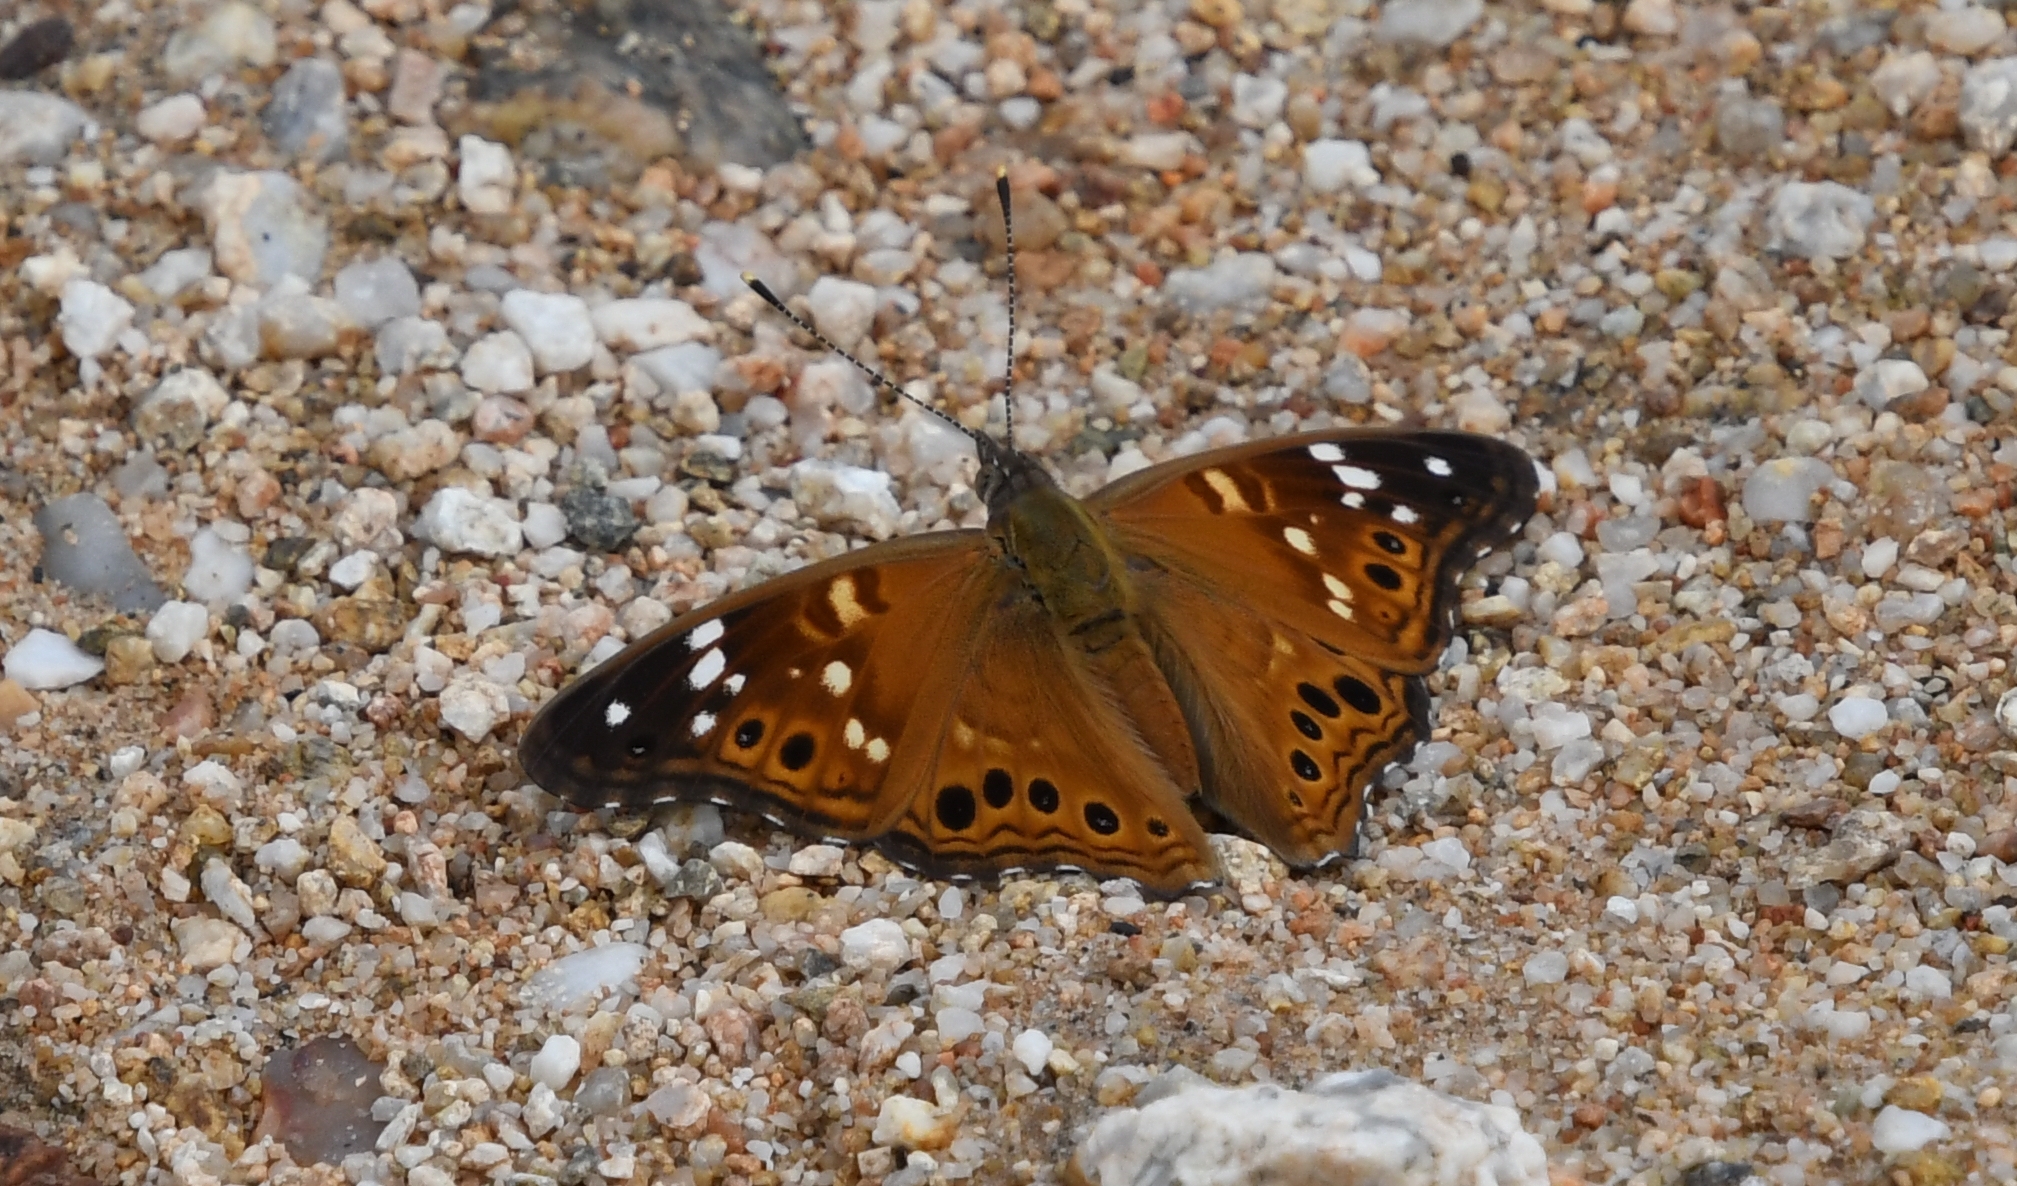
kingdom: Animalia
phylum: Arthropoda
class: Insecta
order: Lepidoptera
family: Nymphalidae
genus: Asterocampa
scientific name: Asterocampa leilia
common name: Empress leilia
